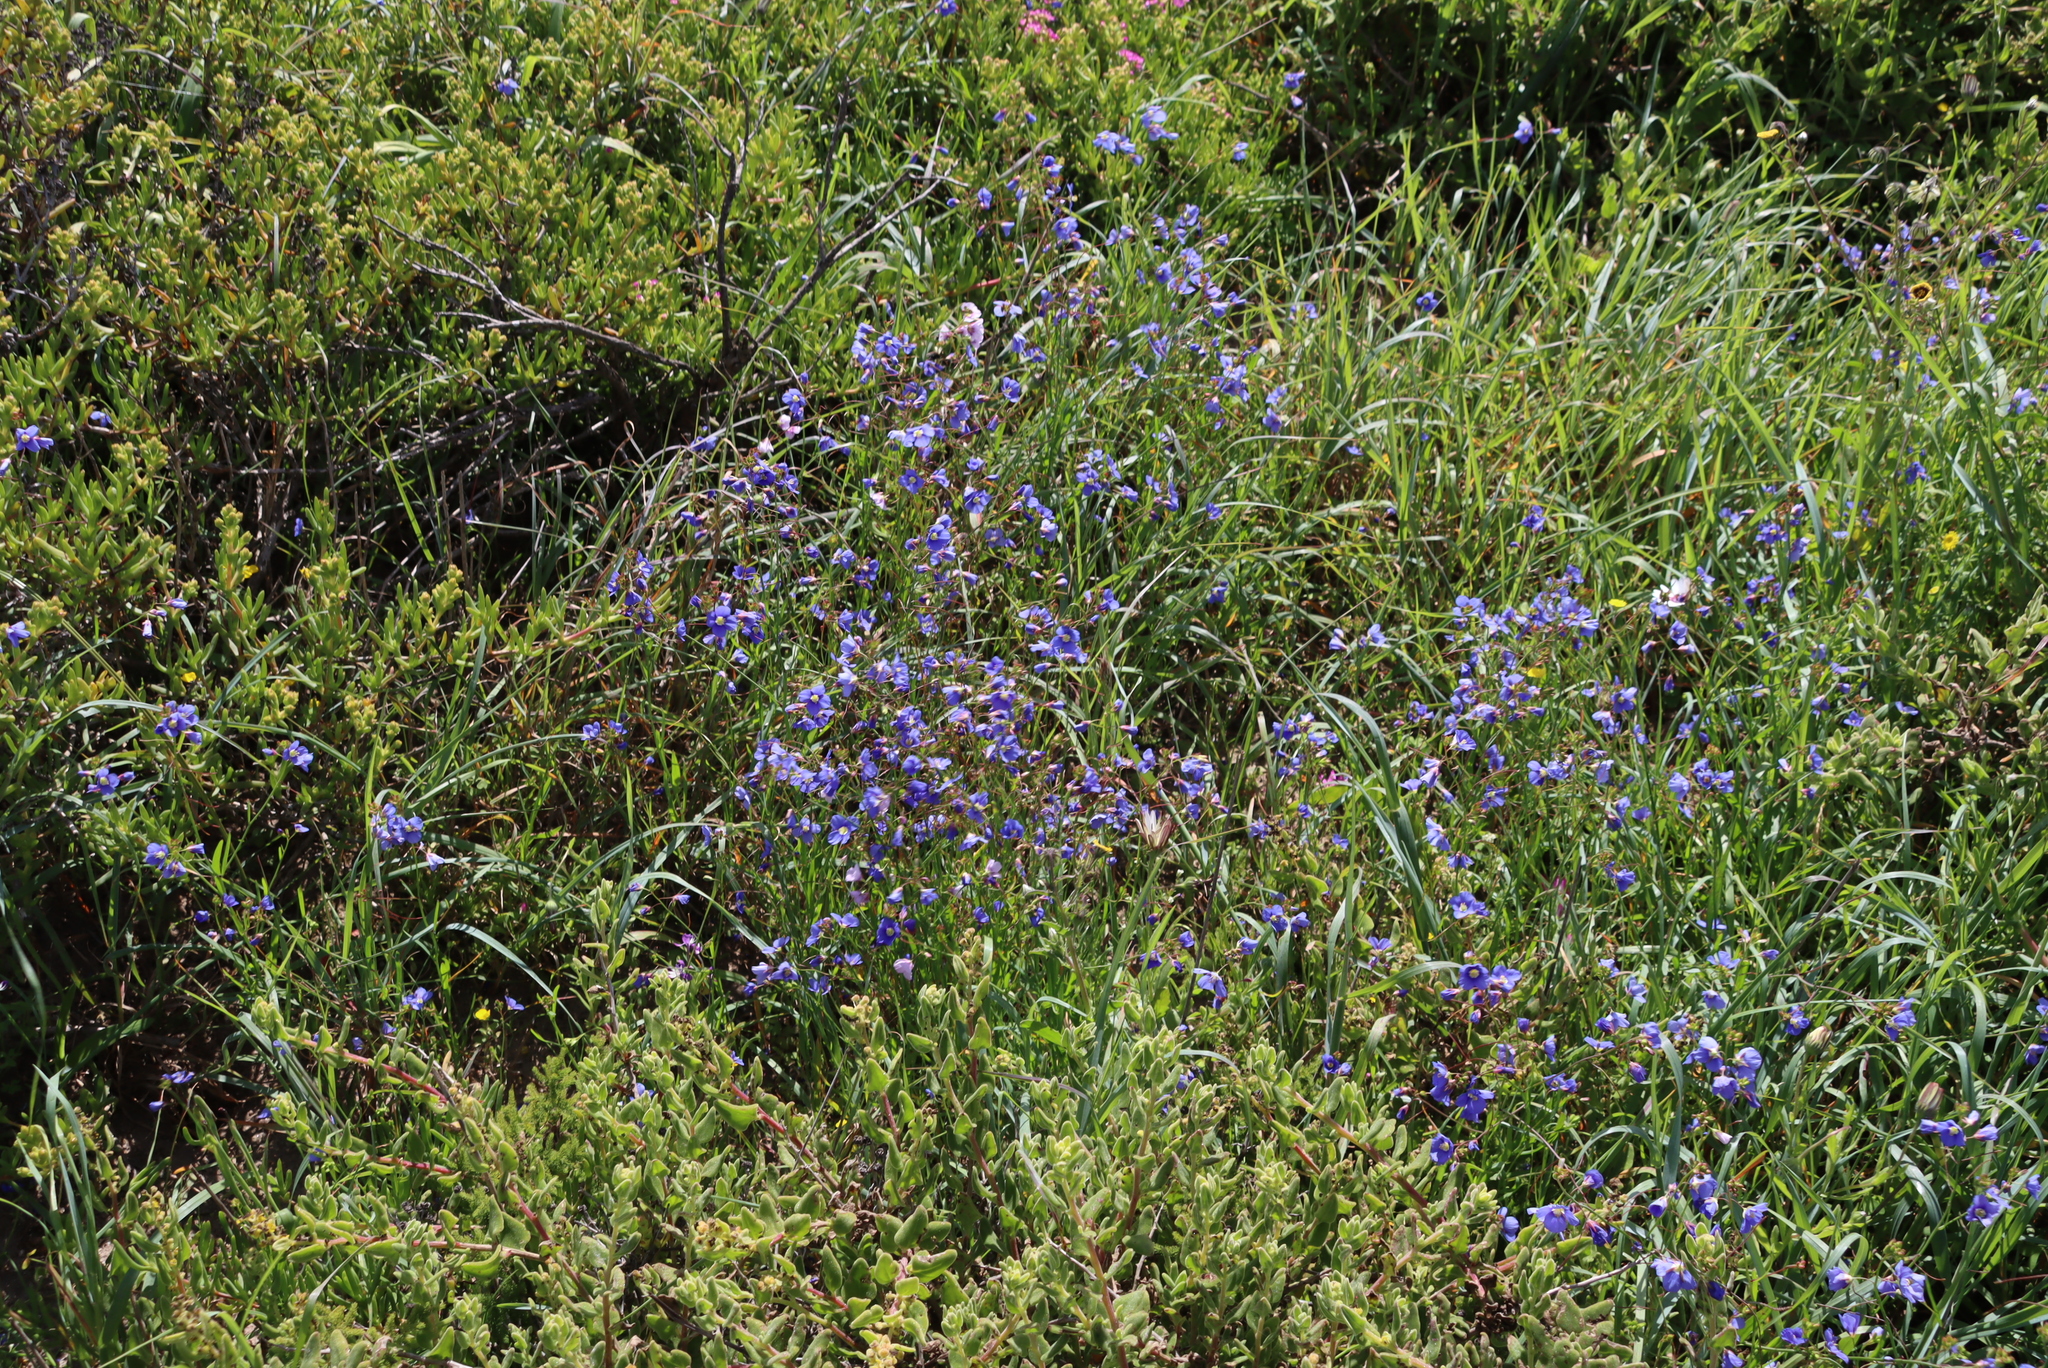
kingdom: Plantae
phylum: Tracheophyta
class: Magnoliopsida
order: Brassicales
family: Brassicaceae
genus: Heliophila
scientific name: Heliophila coronopifolia
